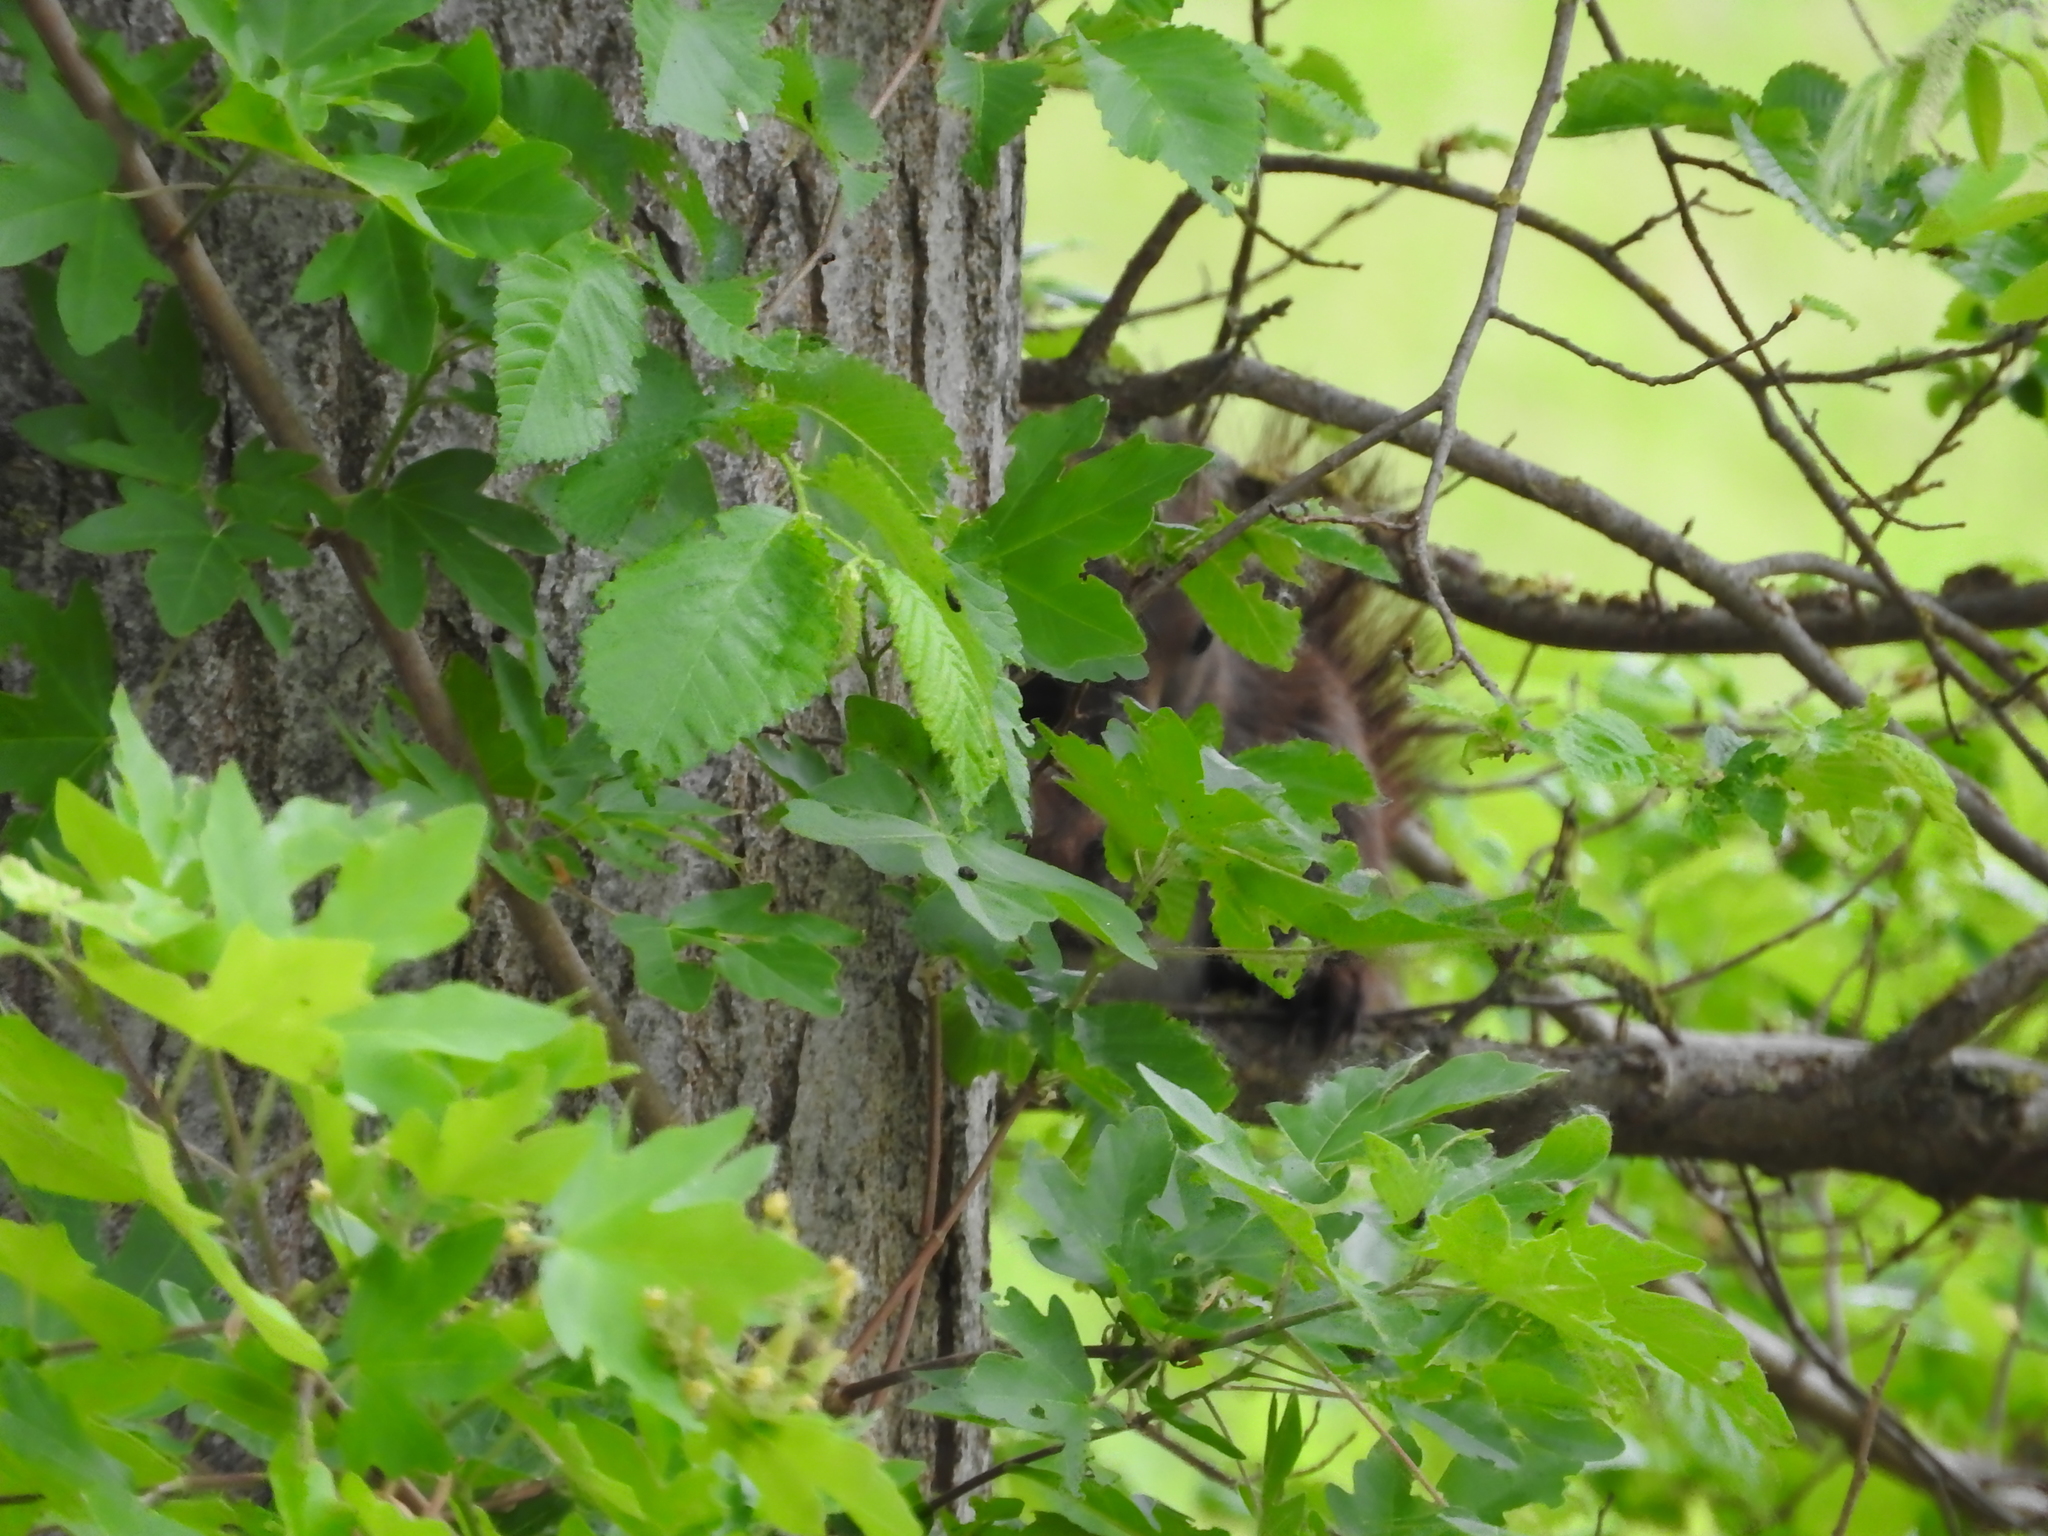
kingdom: Animalia
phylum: Chordata
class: Mammalia
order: Rodentia
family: Sciuridae
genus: Sciurus
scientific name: Sciurus vulgaris
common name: Eurasian red squirrel
